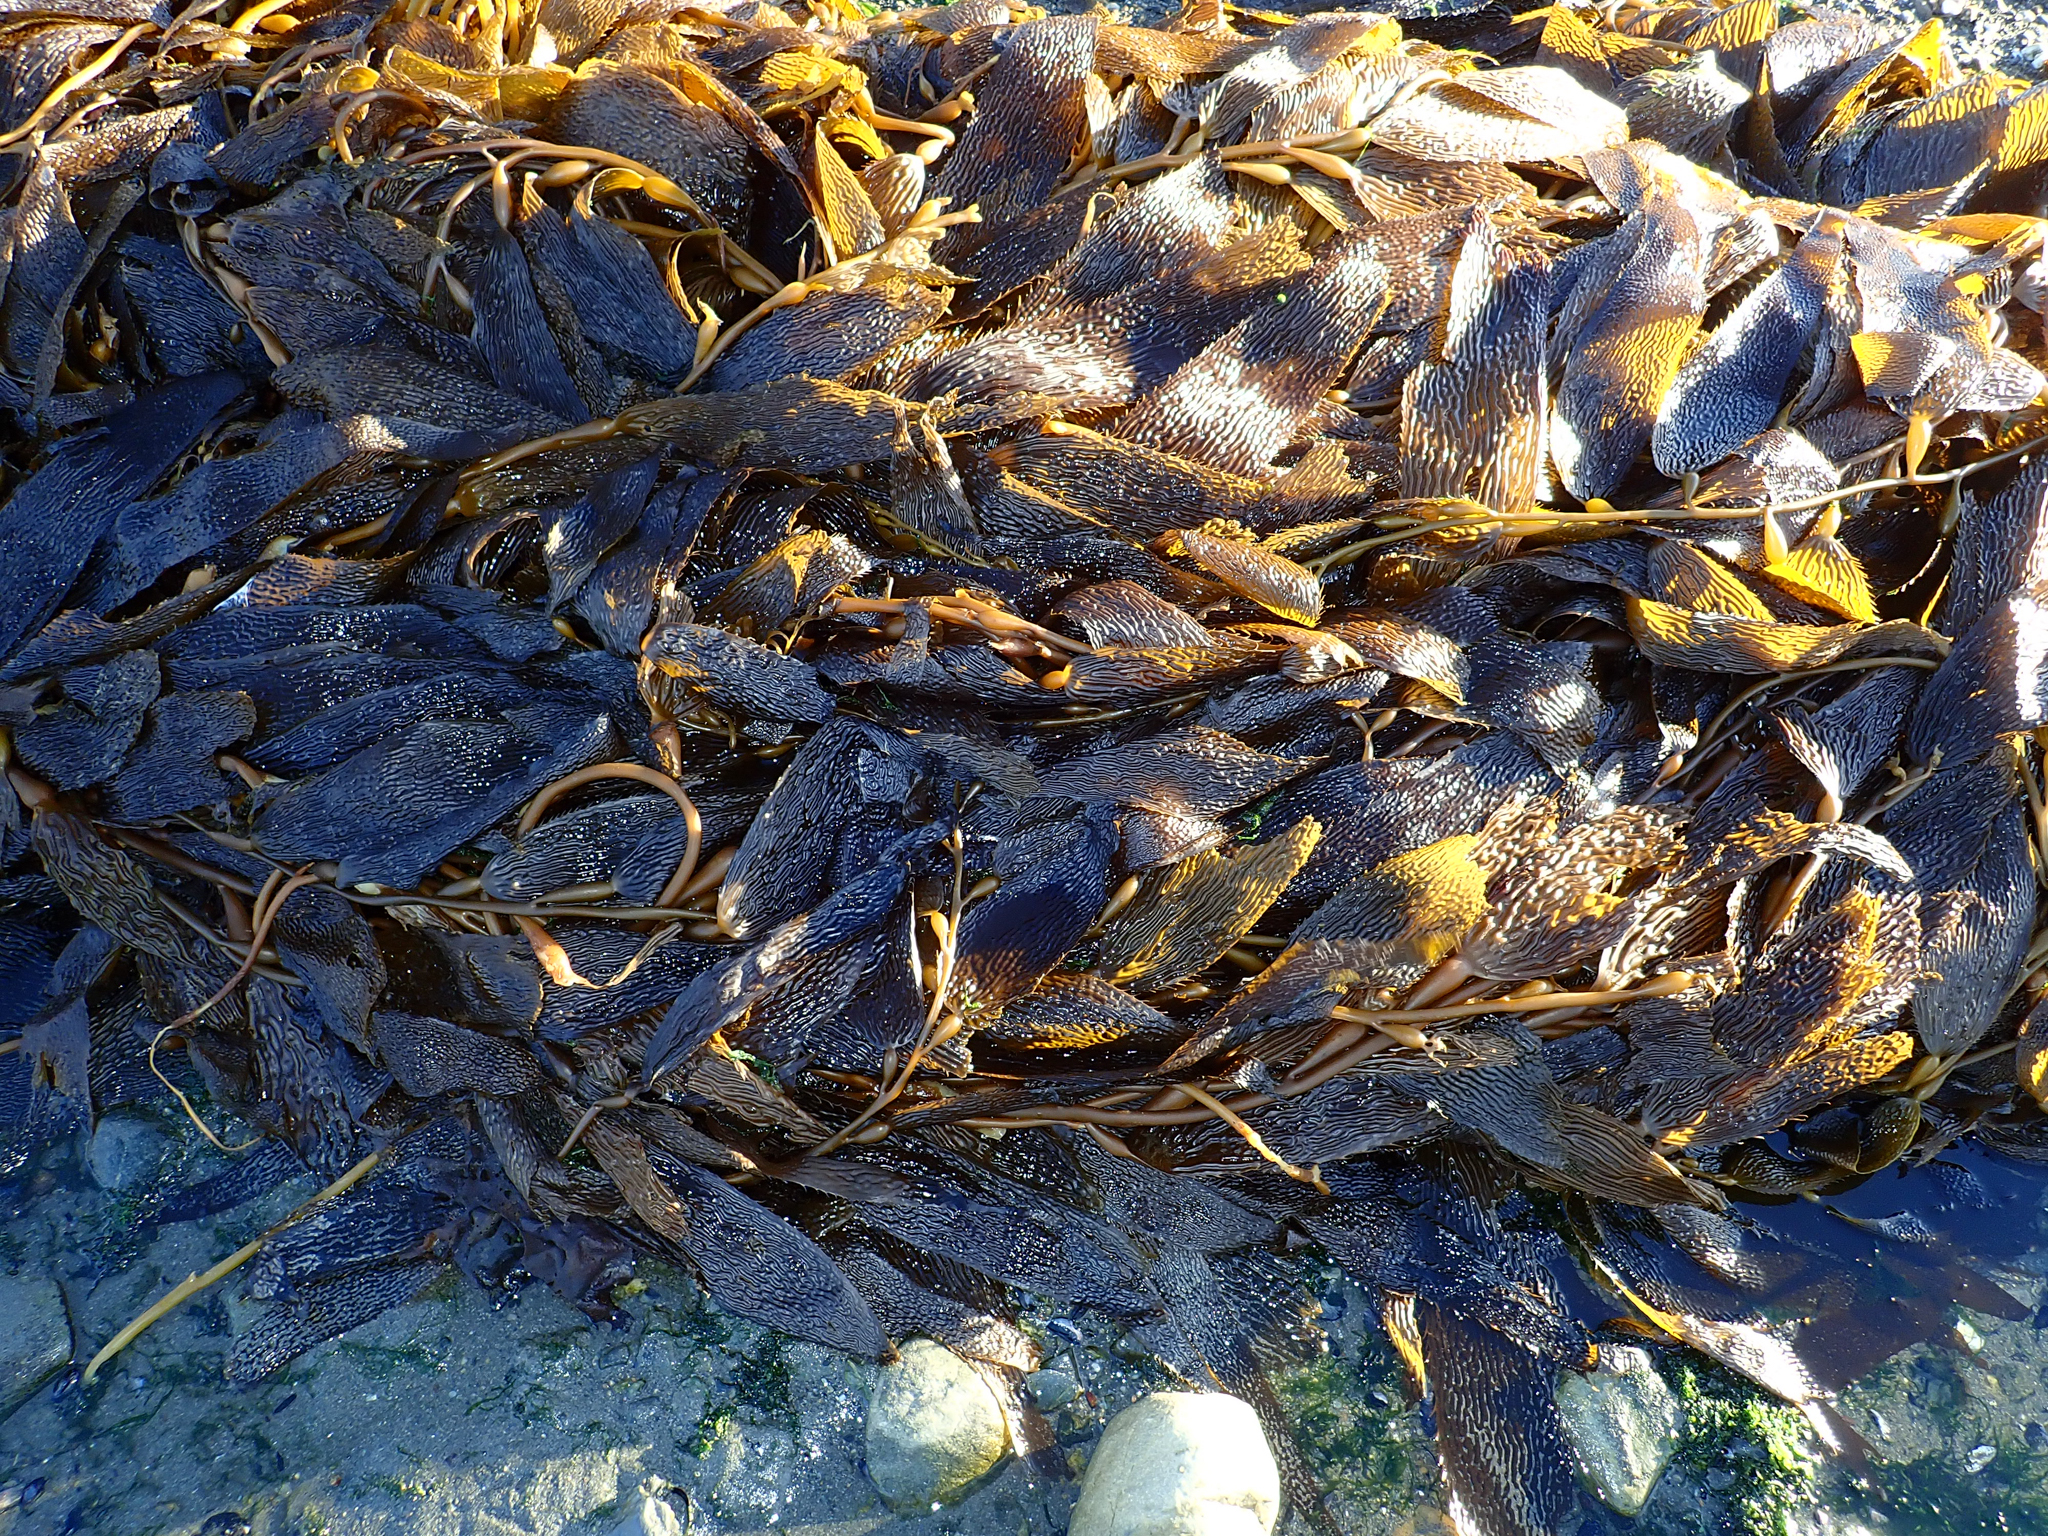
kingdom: Chromista
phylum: Ochrophyta
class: Phaeophyceae
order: Laminariales
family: Laminariaceae
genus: Macrocystis
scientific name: Macrocystis pyrifera
